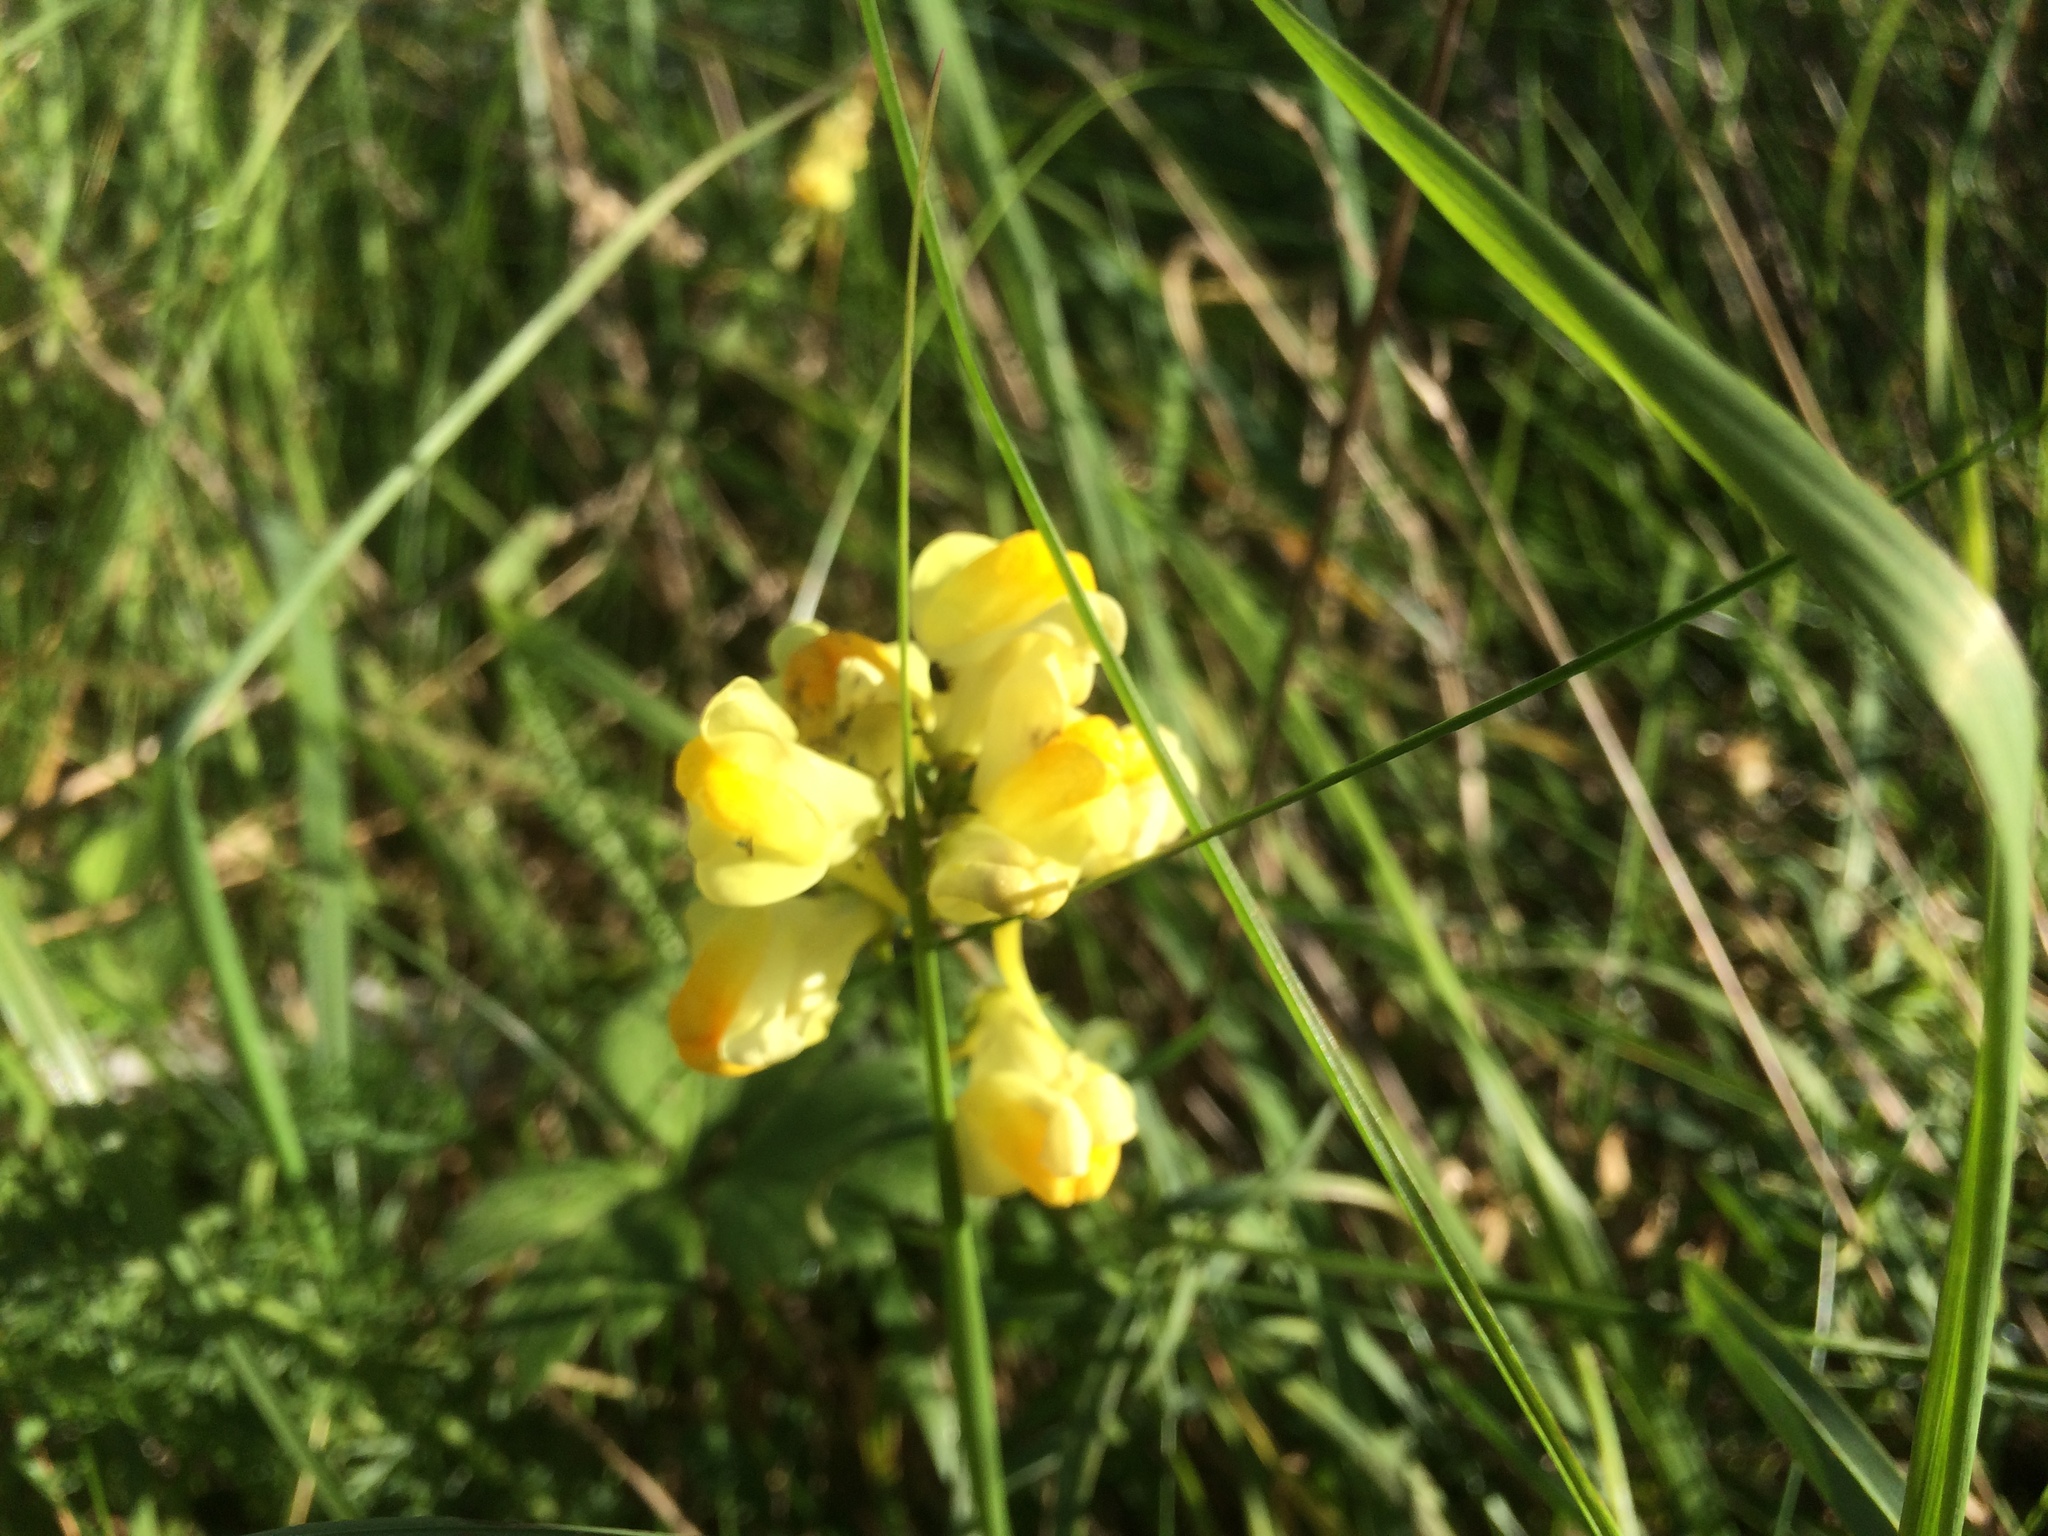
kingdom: Plantae
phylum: Tracheophyta
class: Magnoliopsida
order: Lamiales
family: Plantaginaceae
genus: Linaria
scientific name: Linaria vulgaris
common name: Butter and eggs
